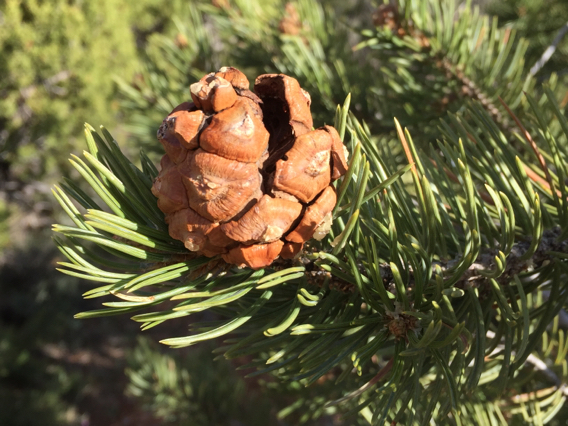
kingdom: Plantae
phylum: Tracheophyta
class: Pinopsida
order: Pinales
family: Pinaceae
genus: Pinus
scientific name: Pinus edulis
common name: Colorado pinyon
